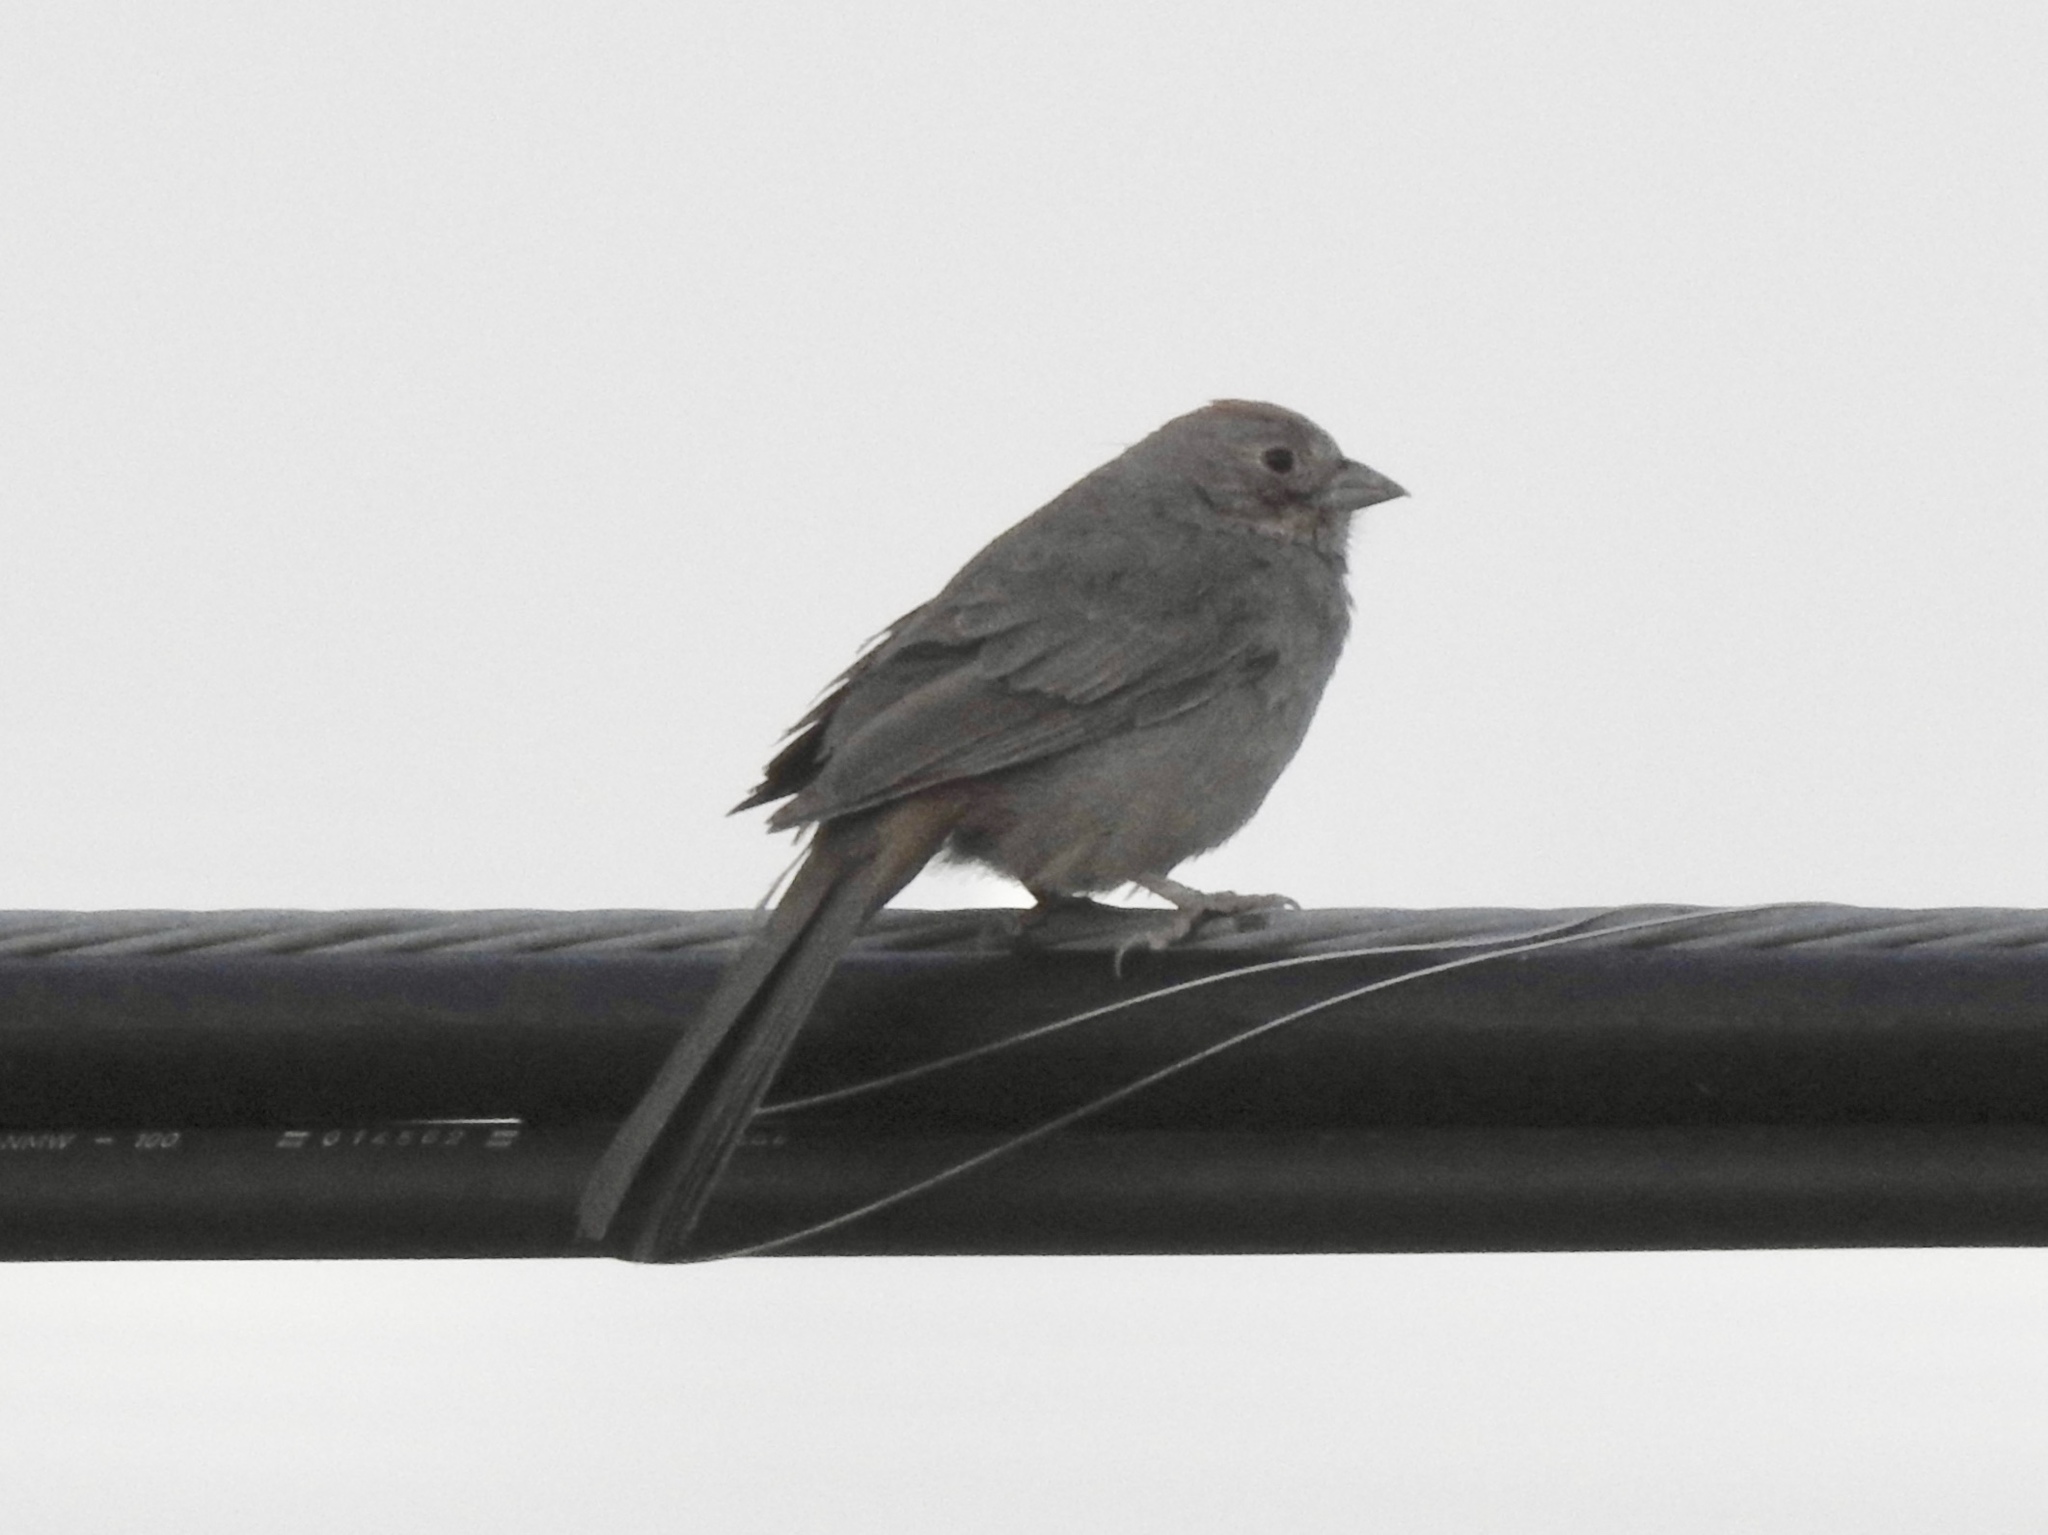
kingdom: Animalia
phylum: Chordata
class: Aves
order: Passeriformes
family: Passerellidae
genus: Melozone
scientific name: Melozone fusca
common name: Canyon towhee
